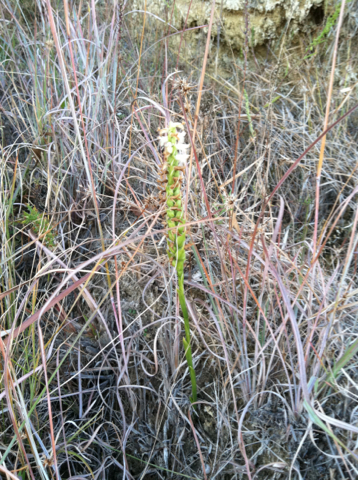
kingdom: Plantae
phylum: Tracheophyta
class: Liliopsida
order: Asparagales
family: Orchidaceae
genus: Spiranthes
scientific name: Spiranthes magnicamporum
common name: Great plains ladies'-tresses
